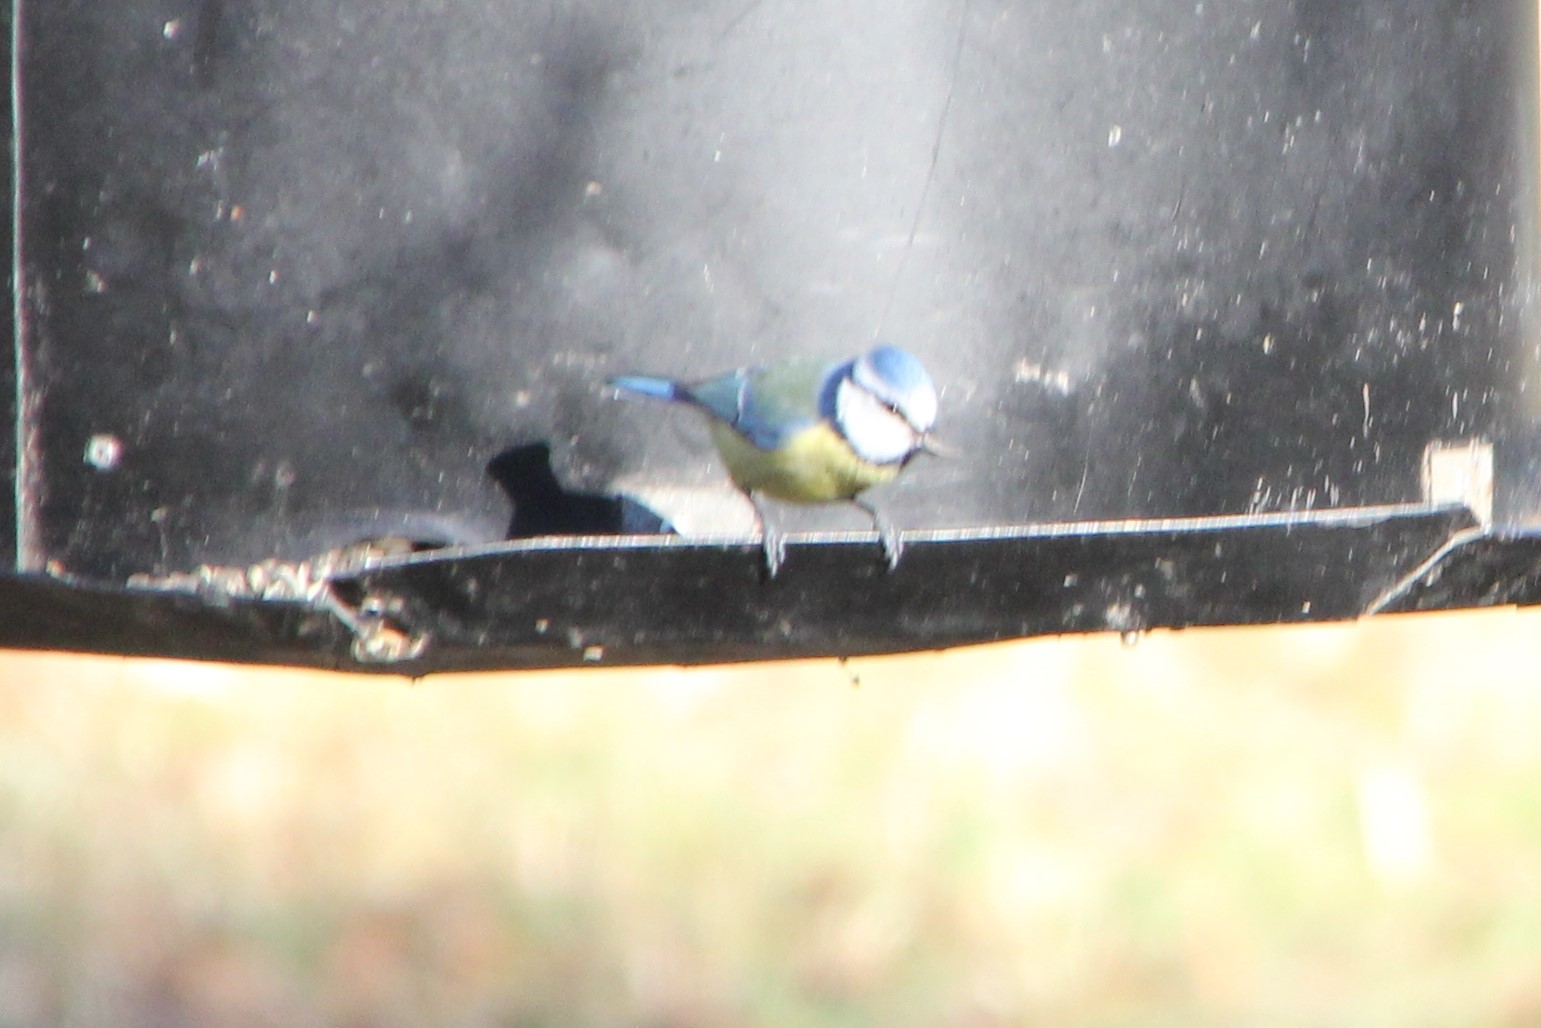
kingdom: Animalia
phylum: Chordata
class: Aves
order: Passeriformes
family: Paridae
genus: Cyanistes
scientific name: Cyanistes caeruleus
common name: Eurasian blue tit
